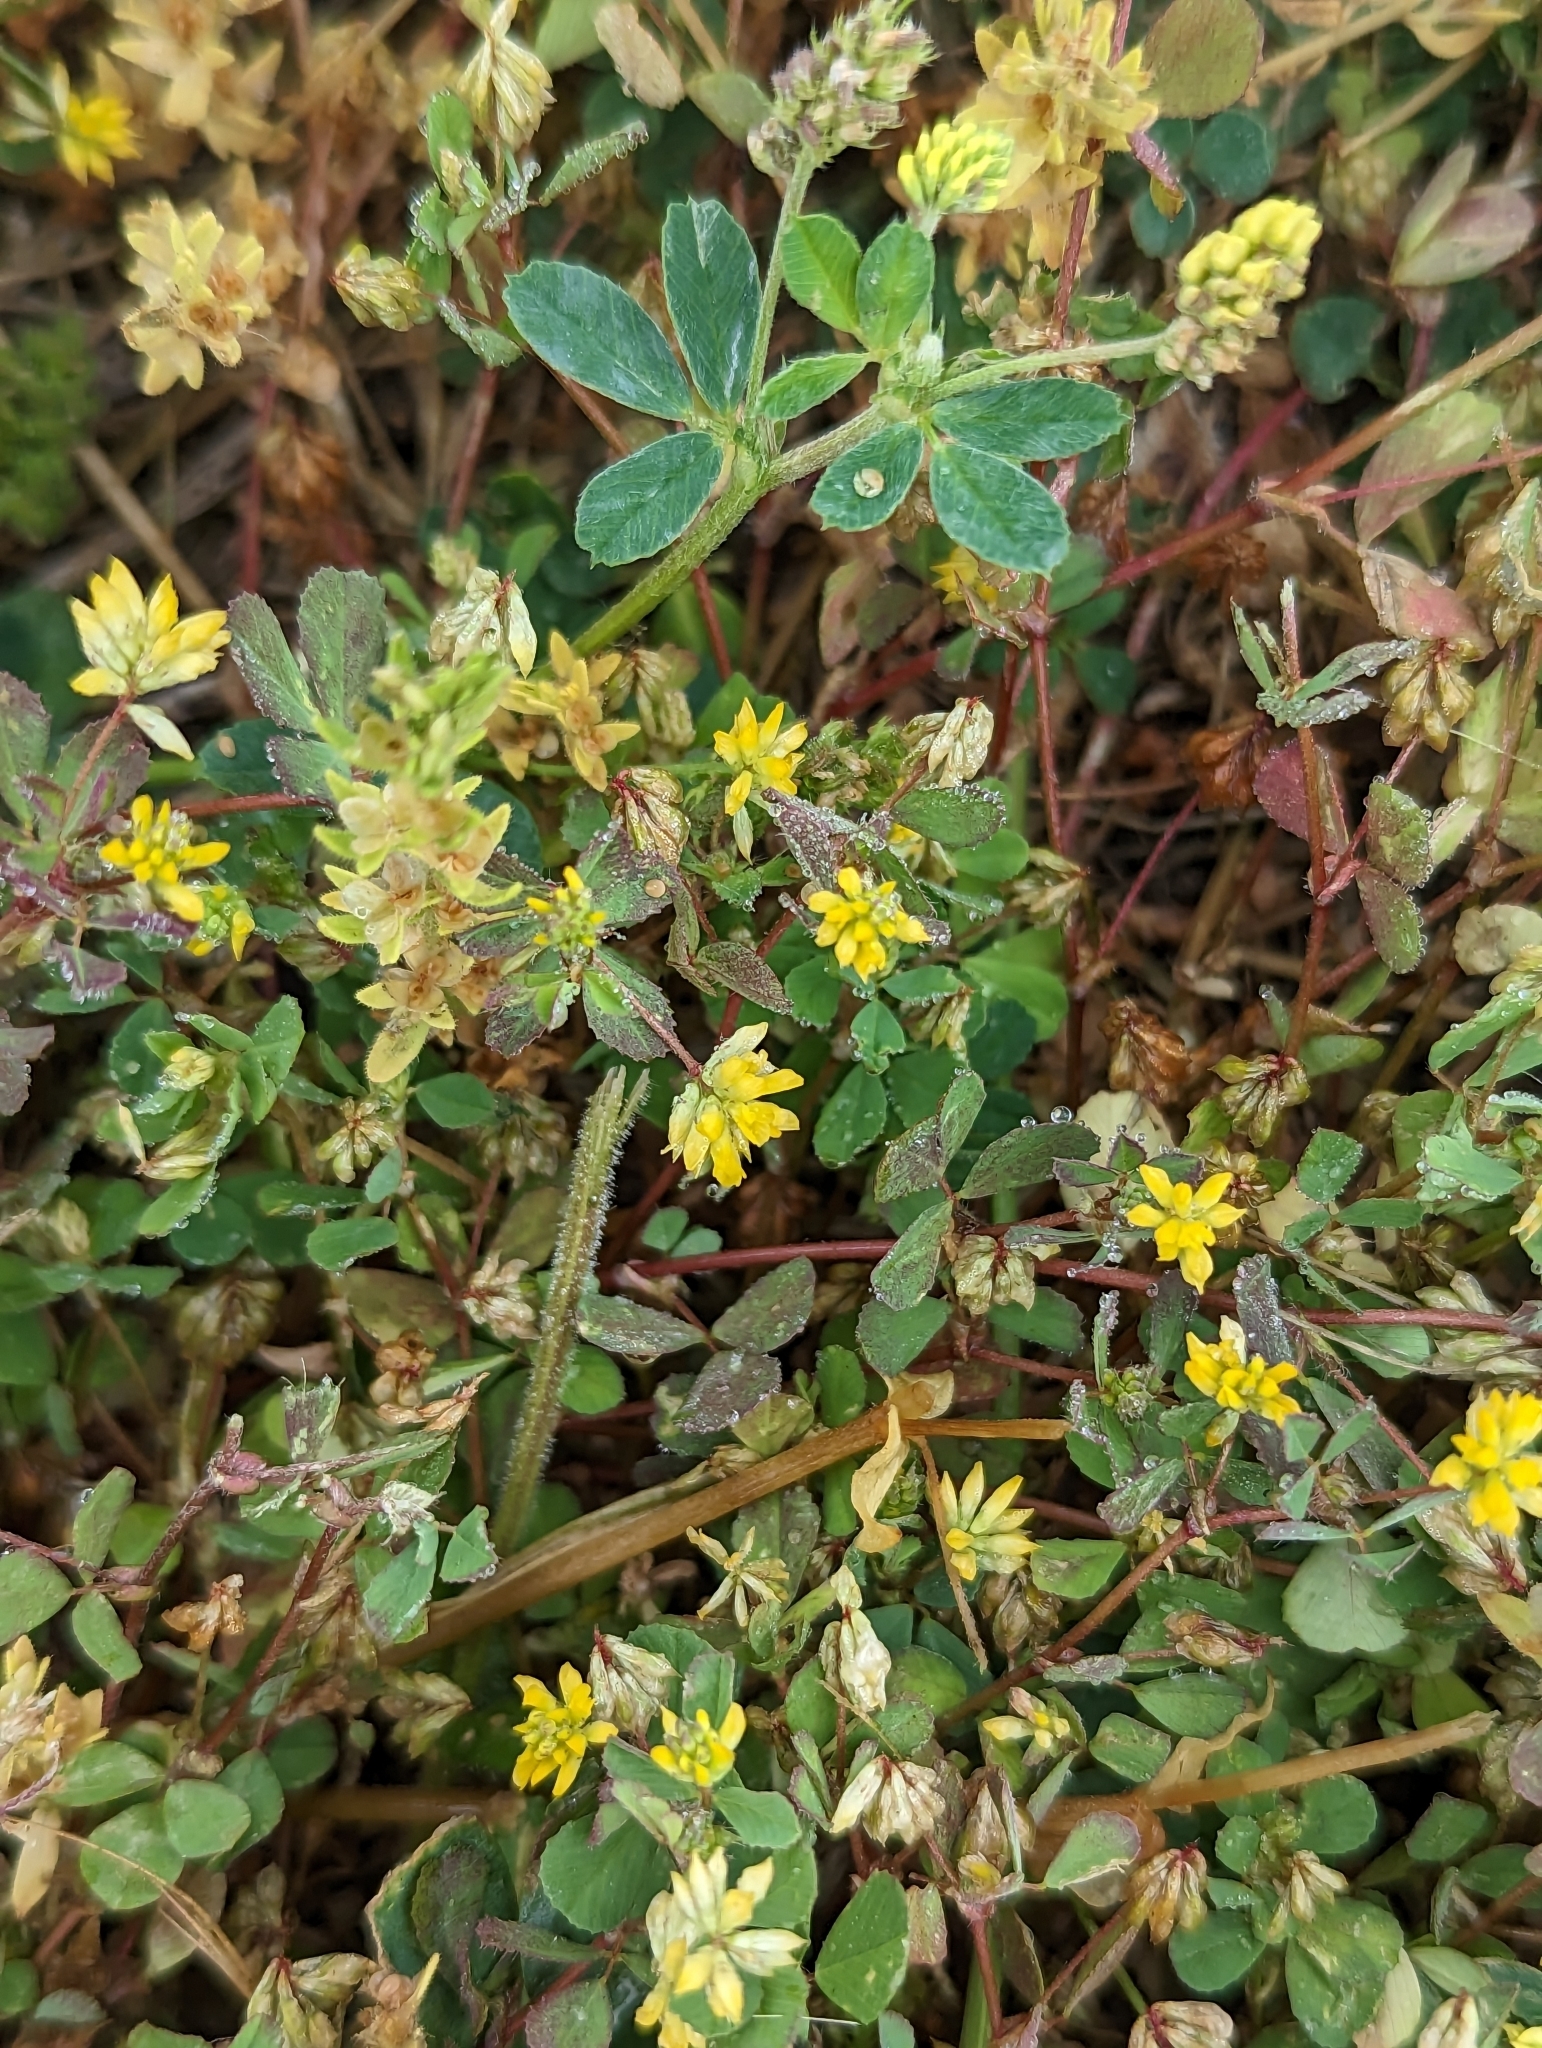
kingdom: Plantae
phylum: Tracheophyta
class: Magnoliopsida
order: Fabales
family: Fabaceae
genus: Trifolium
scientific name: Trifolium dubium
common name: Suckling clover
